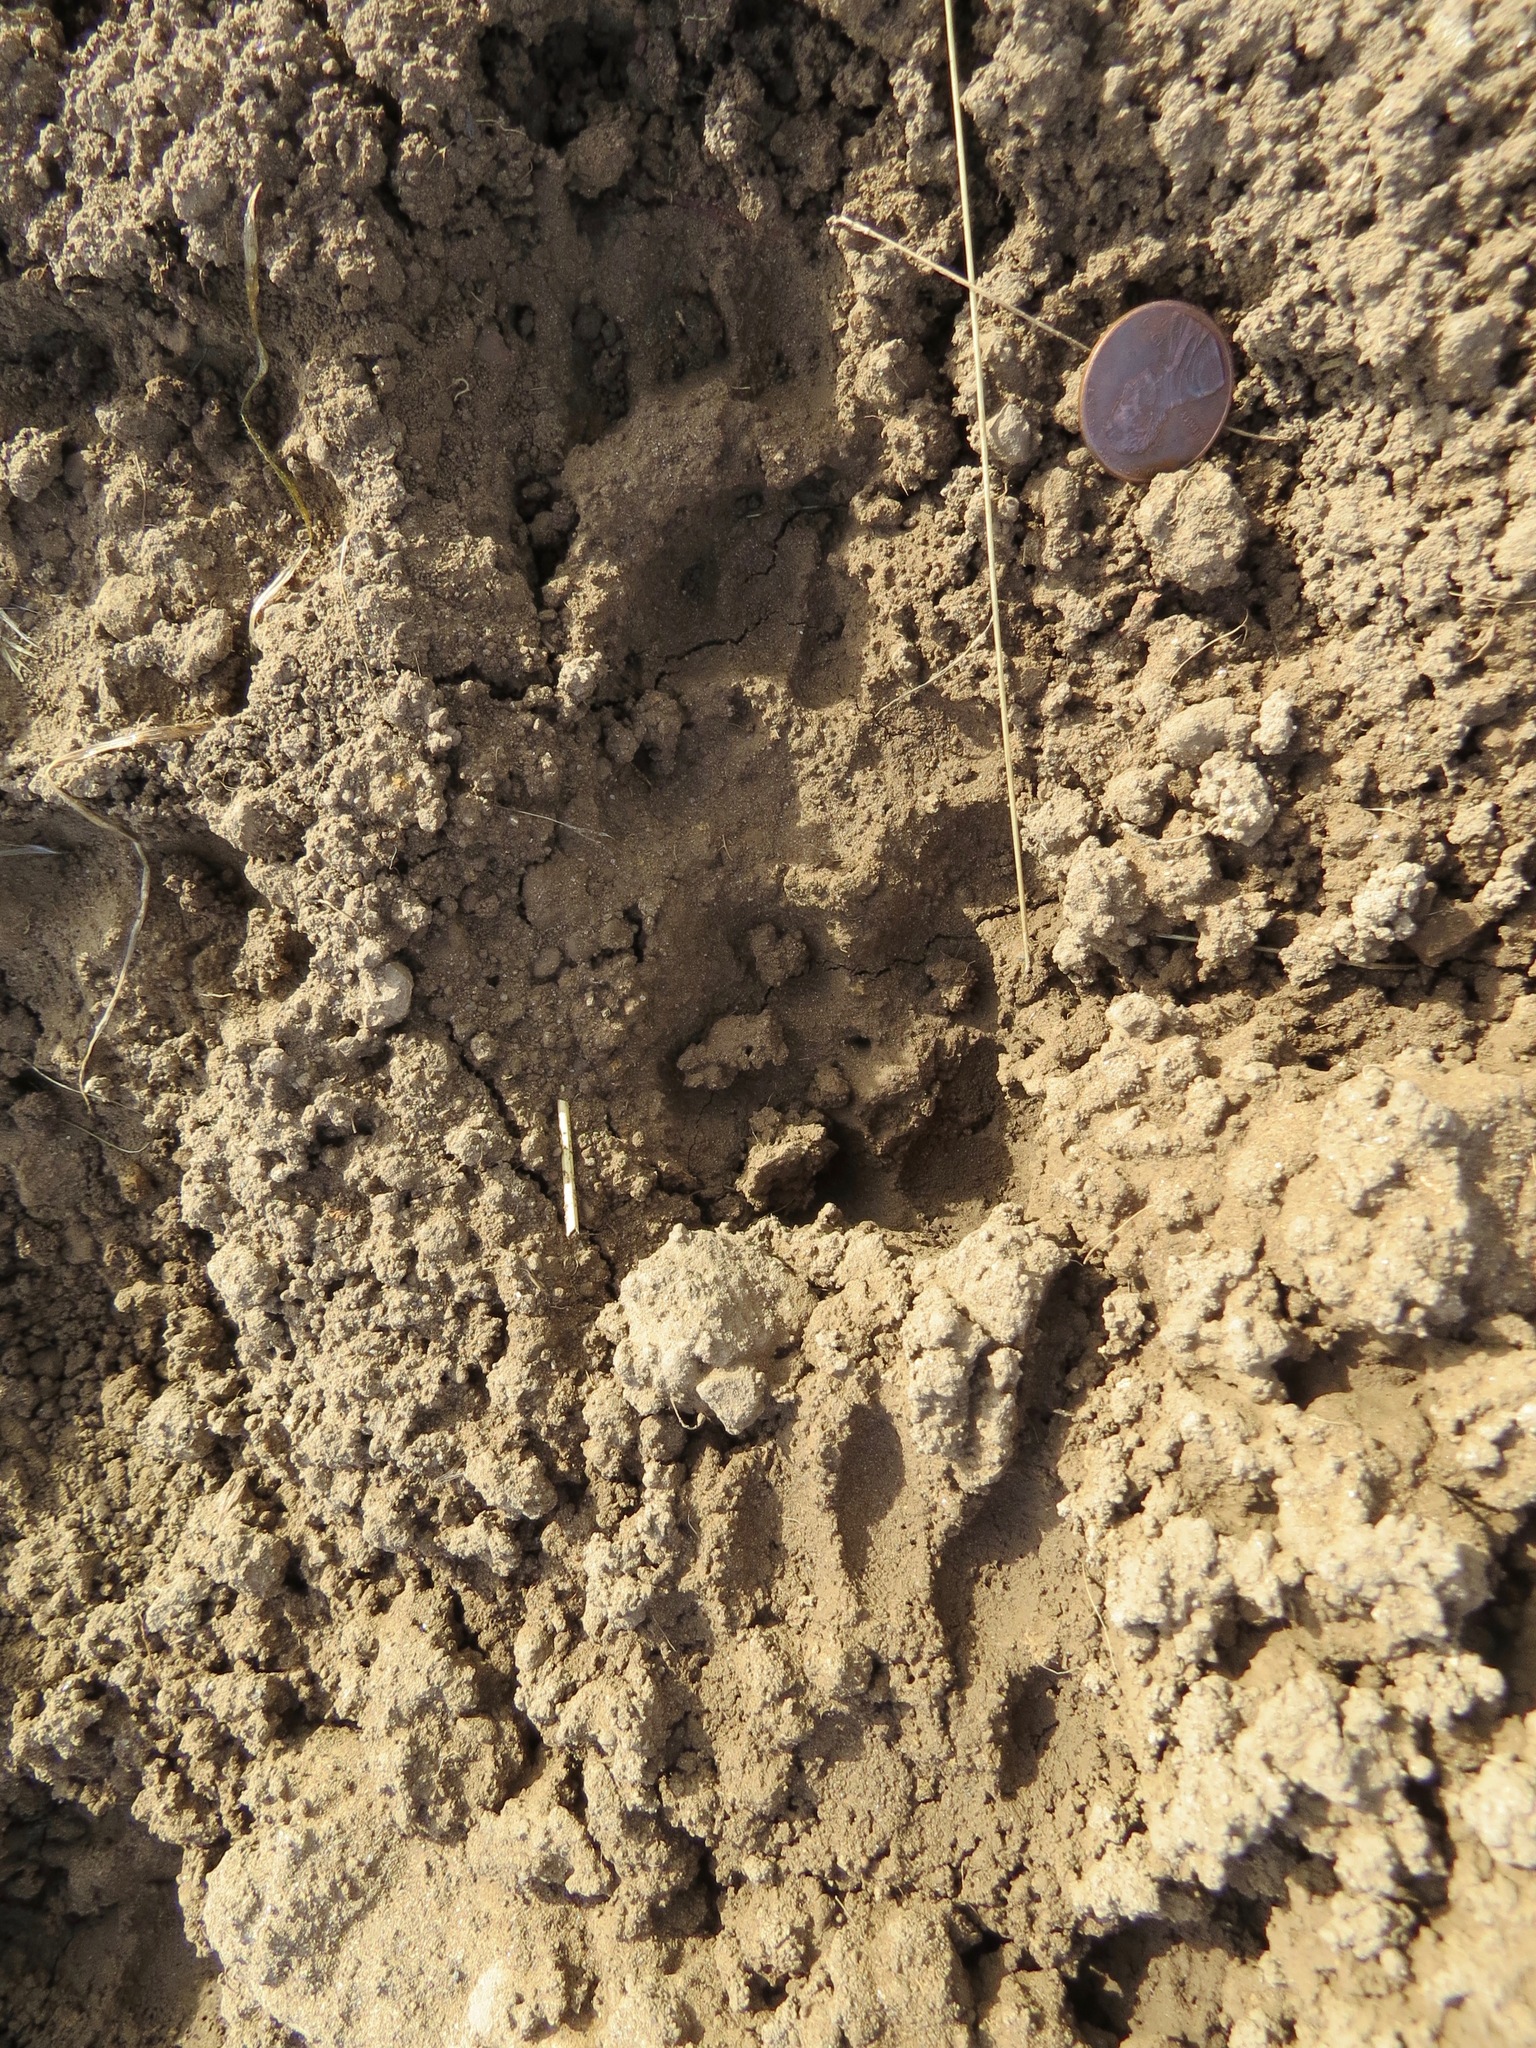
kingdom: Animalia
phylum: Chordata
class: Mammalia
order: Carnivora
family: Mustelidae
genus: Taxidea
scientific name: Taxidea taxus
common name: American badger
